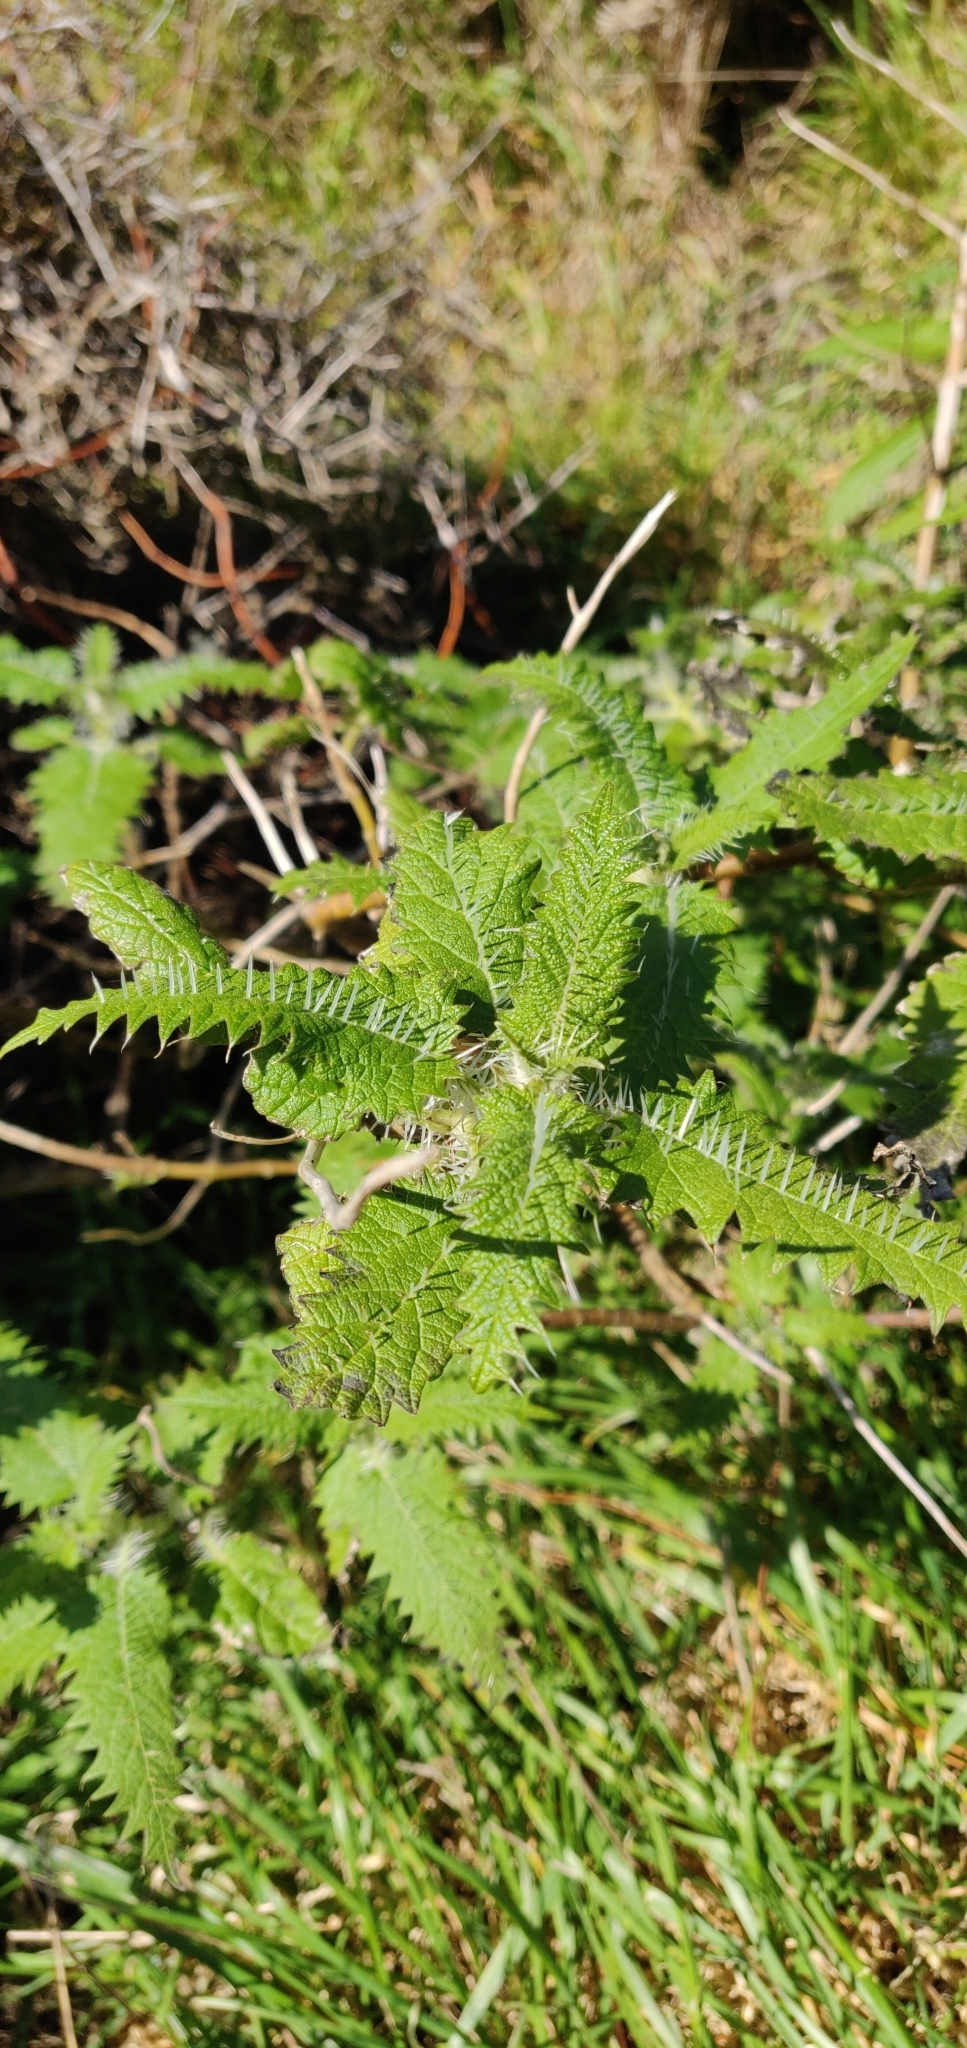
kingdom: Plantae
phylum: Tracheophyta
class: Magnoliopsida
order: Rosales
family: Urticaceae
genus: Urtica
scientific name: Urtica ferox
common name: Tree nettle
